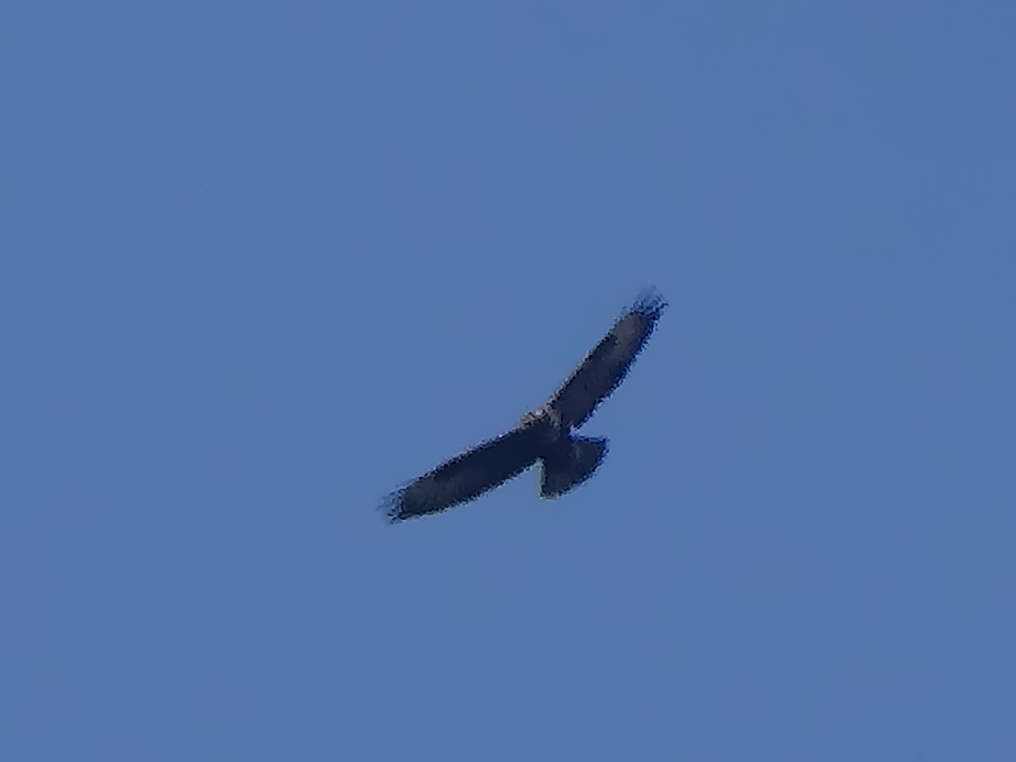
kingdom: Animalia
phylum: Chordata
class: Aves
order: Accipitriformes
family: Accipitridae
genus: Buteo
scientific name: Buteo buteo
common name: Common buzzard
